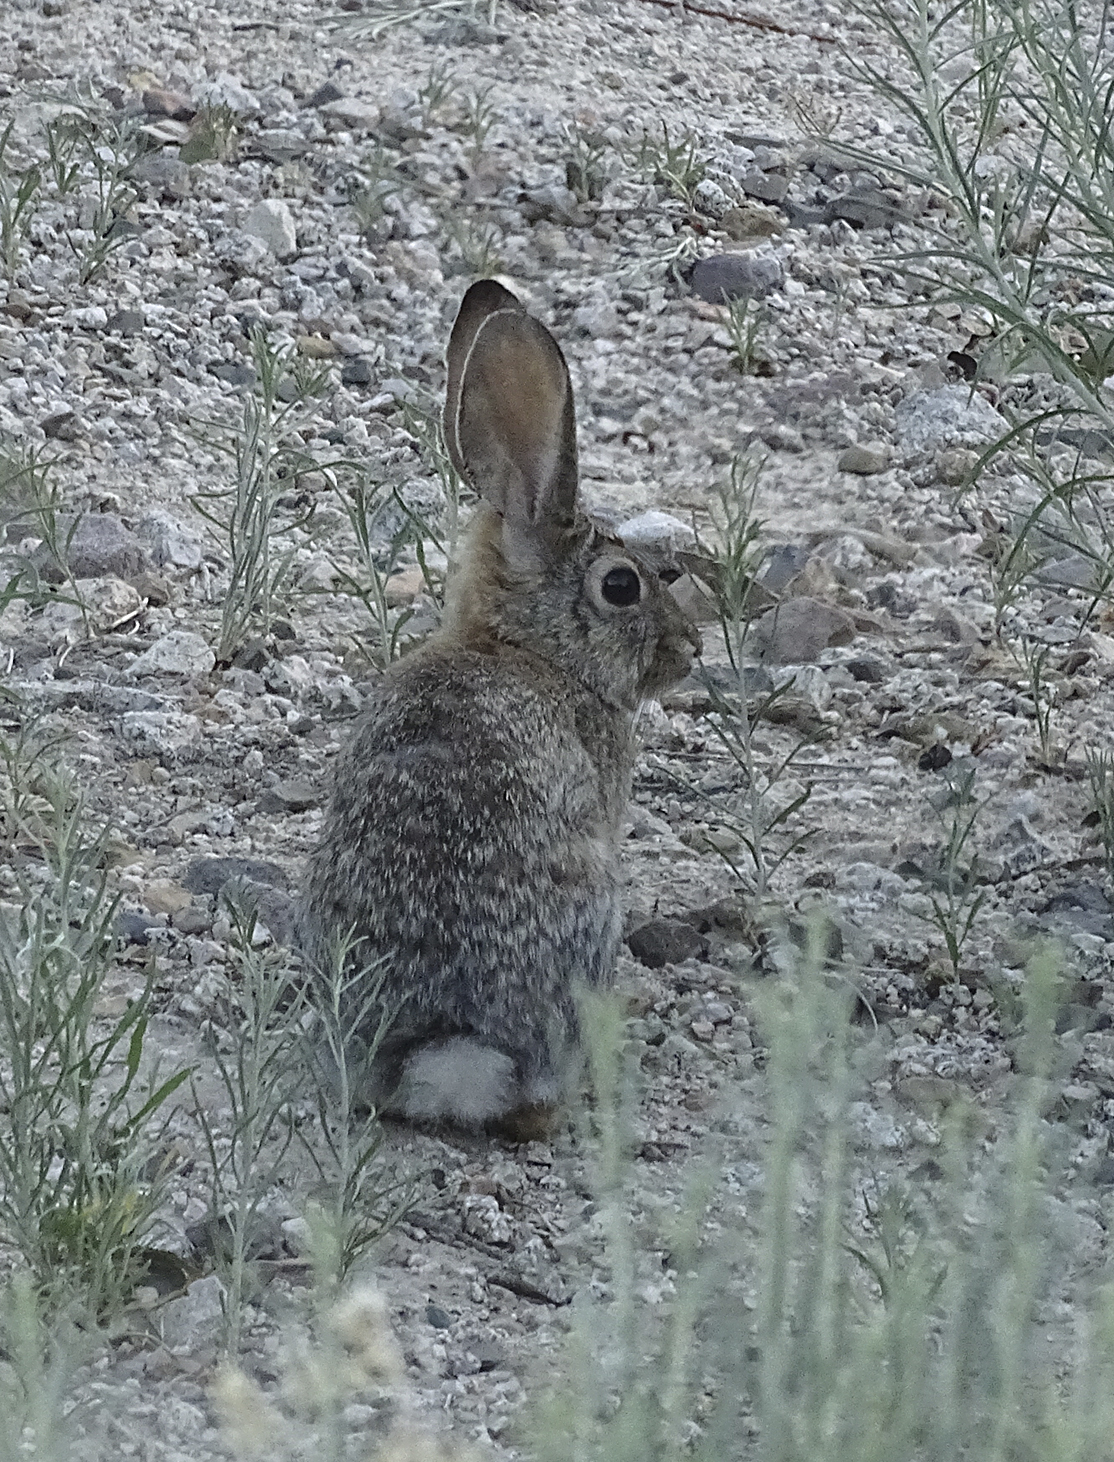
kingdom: Animalia
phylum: Chordata
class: Mammalia
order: Lagomorpha
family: Leporidae
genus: Sylvilagus
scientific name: Sylvilagus audubonii
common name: Desert cottontail
